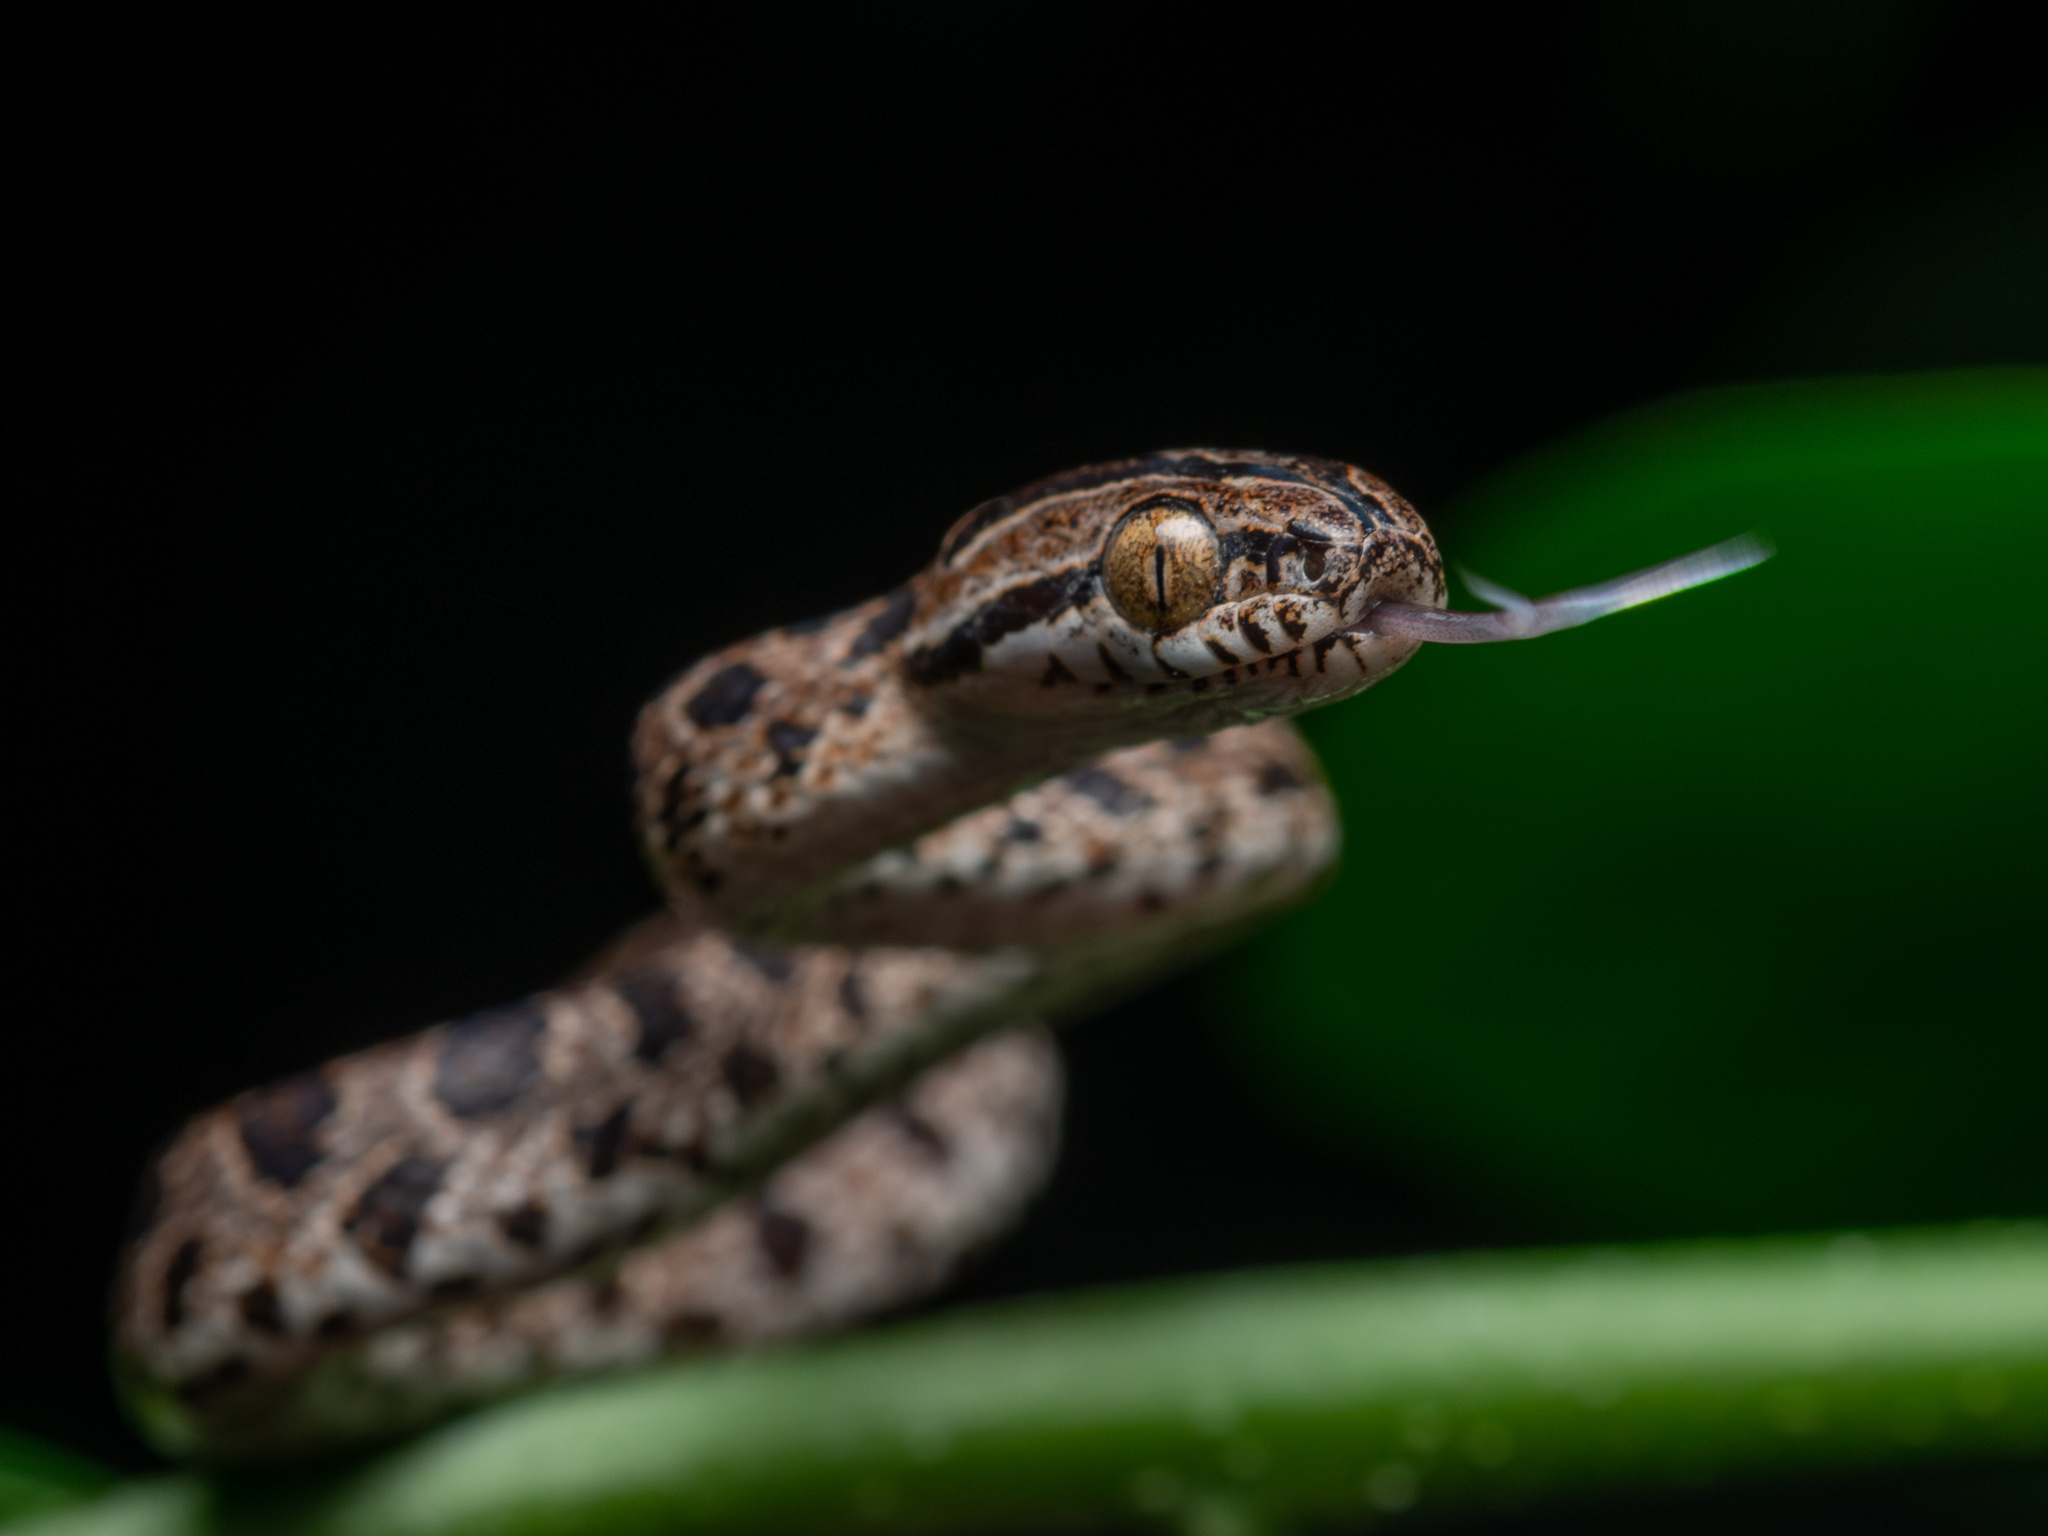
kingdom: Animalia
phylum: Chordata
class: Squamata
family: Colubridae
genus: Boiga
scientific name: Boiga multomaculata
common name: Many-spotted cat snake
